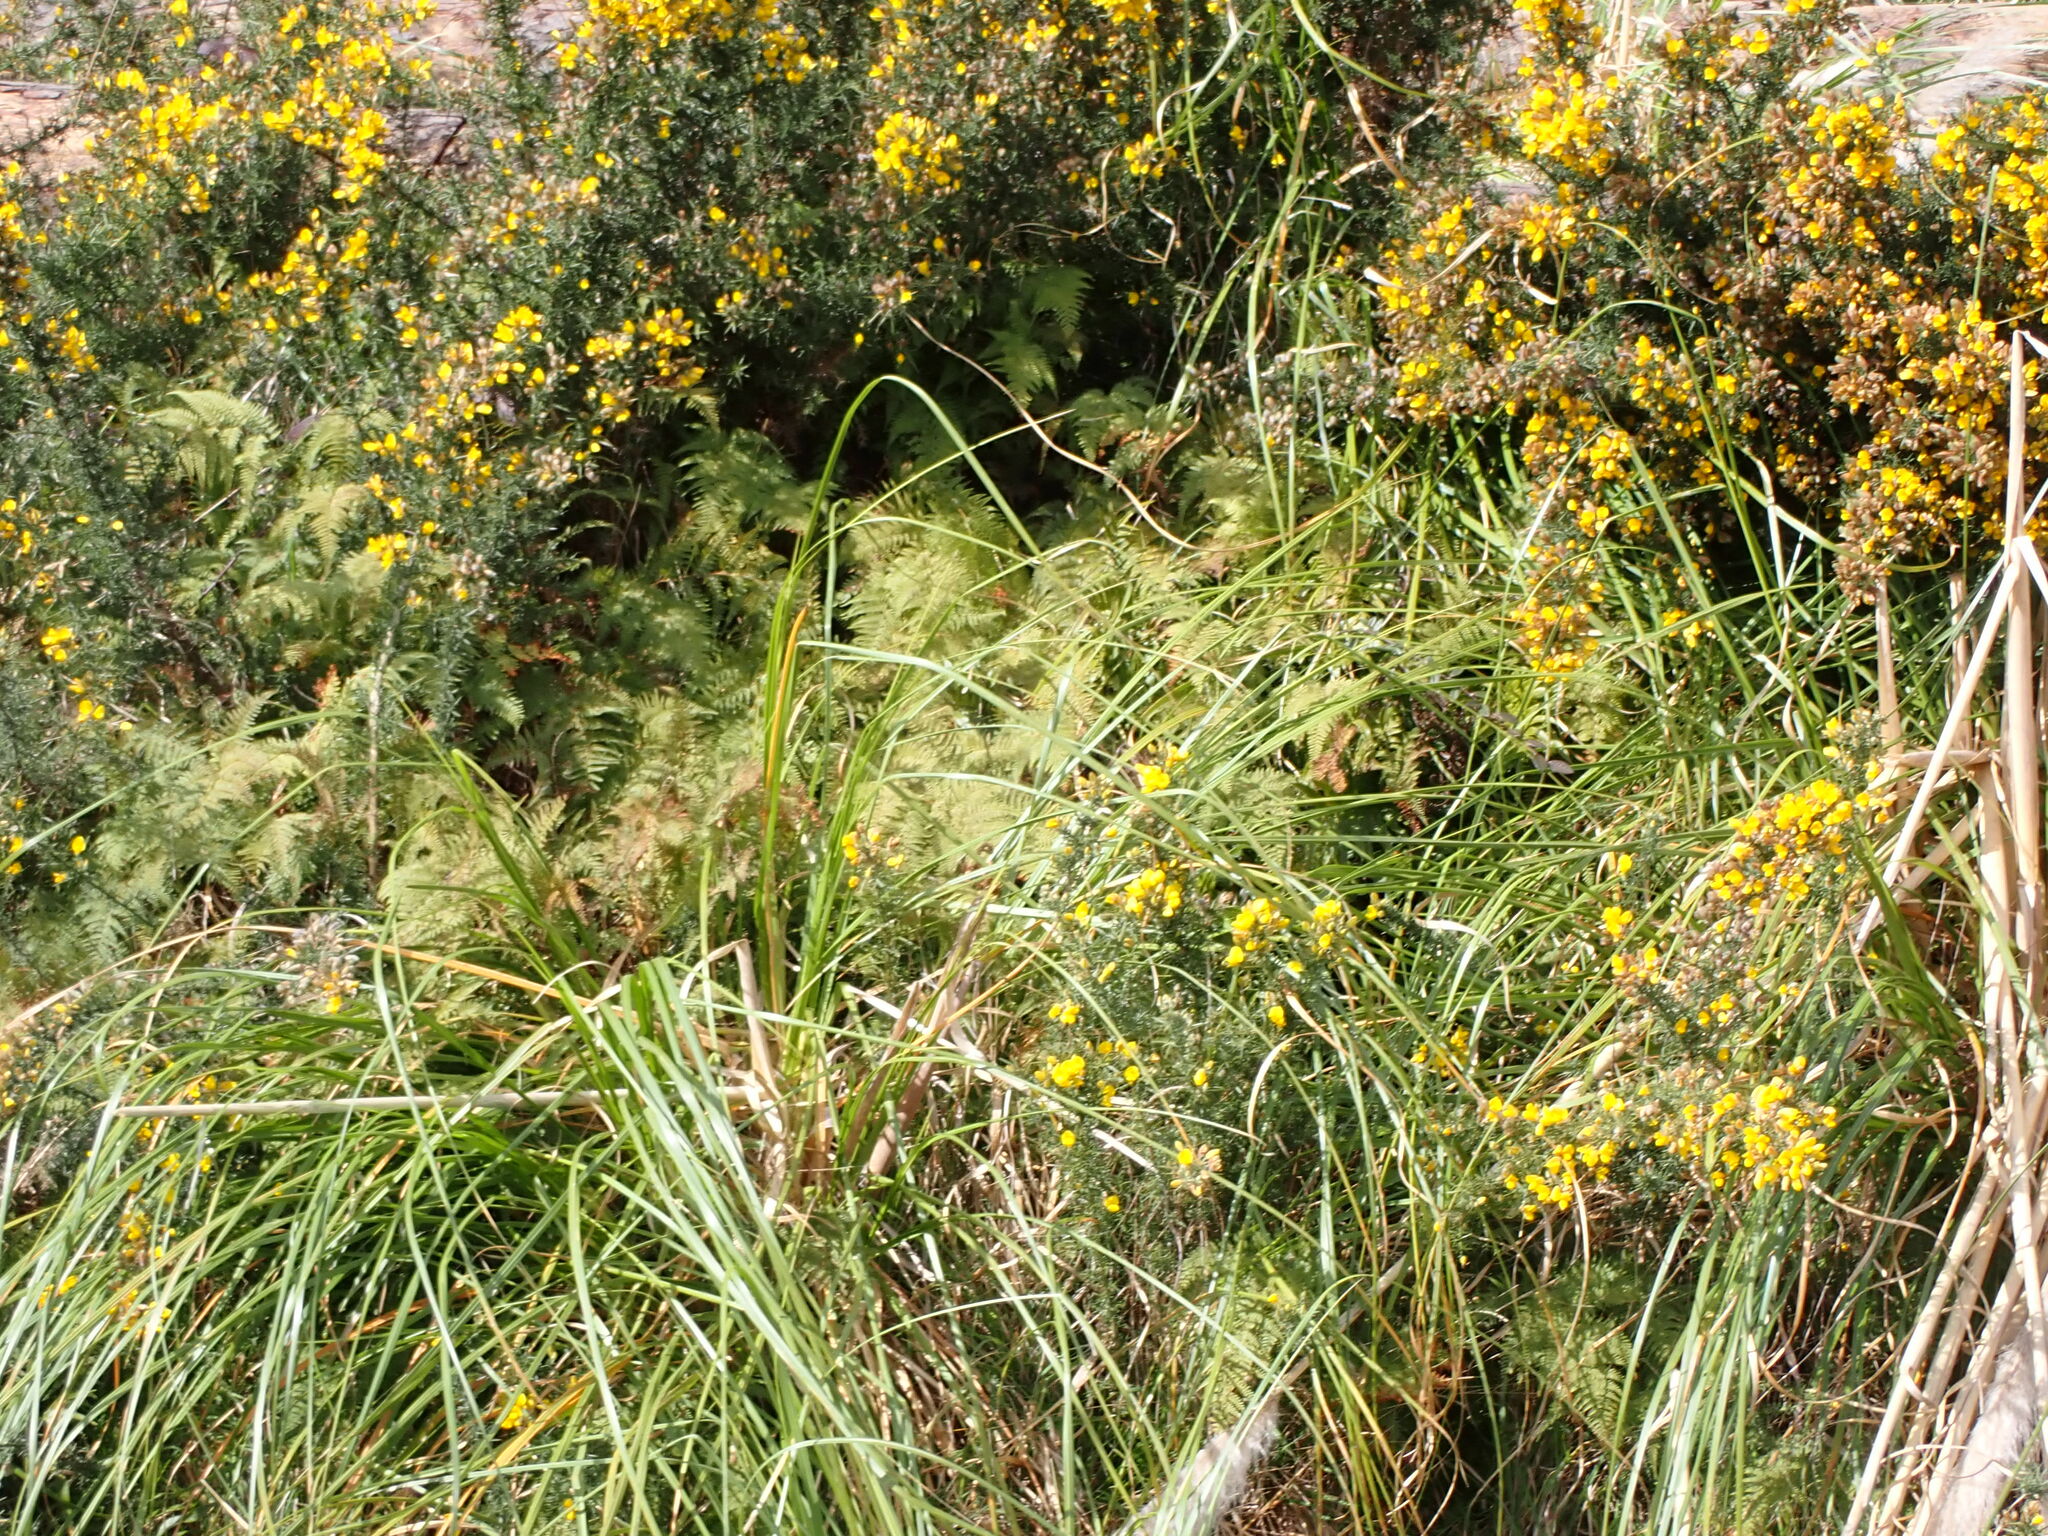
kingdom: Plantae
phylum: Tracheophyta
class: Polypodiopsida
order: Polypodiales
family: Dennstaedtiaceae
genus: Paesia
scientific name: Paesia scaberula
